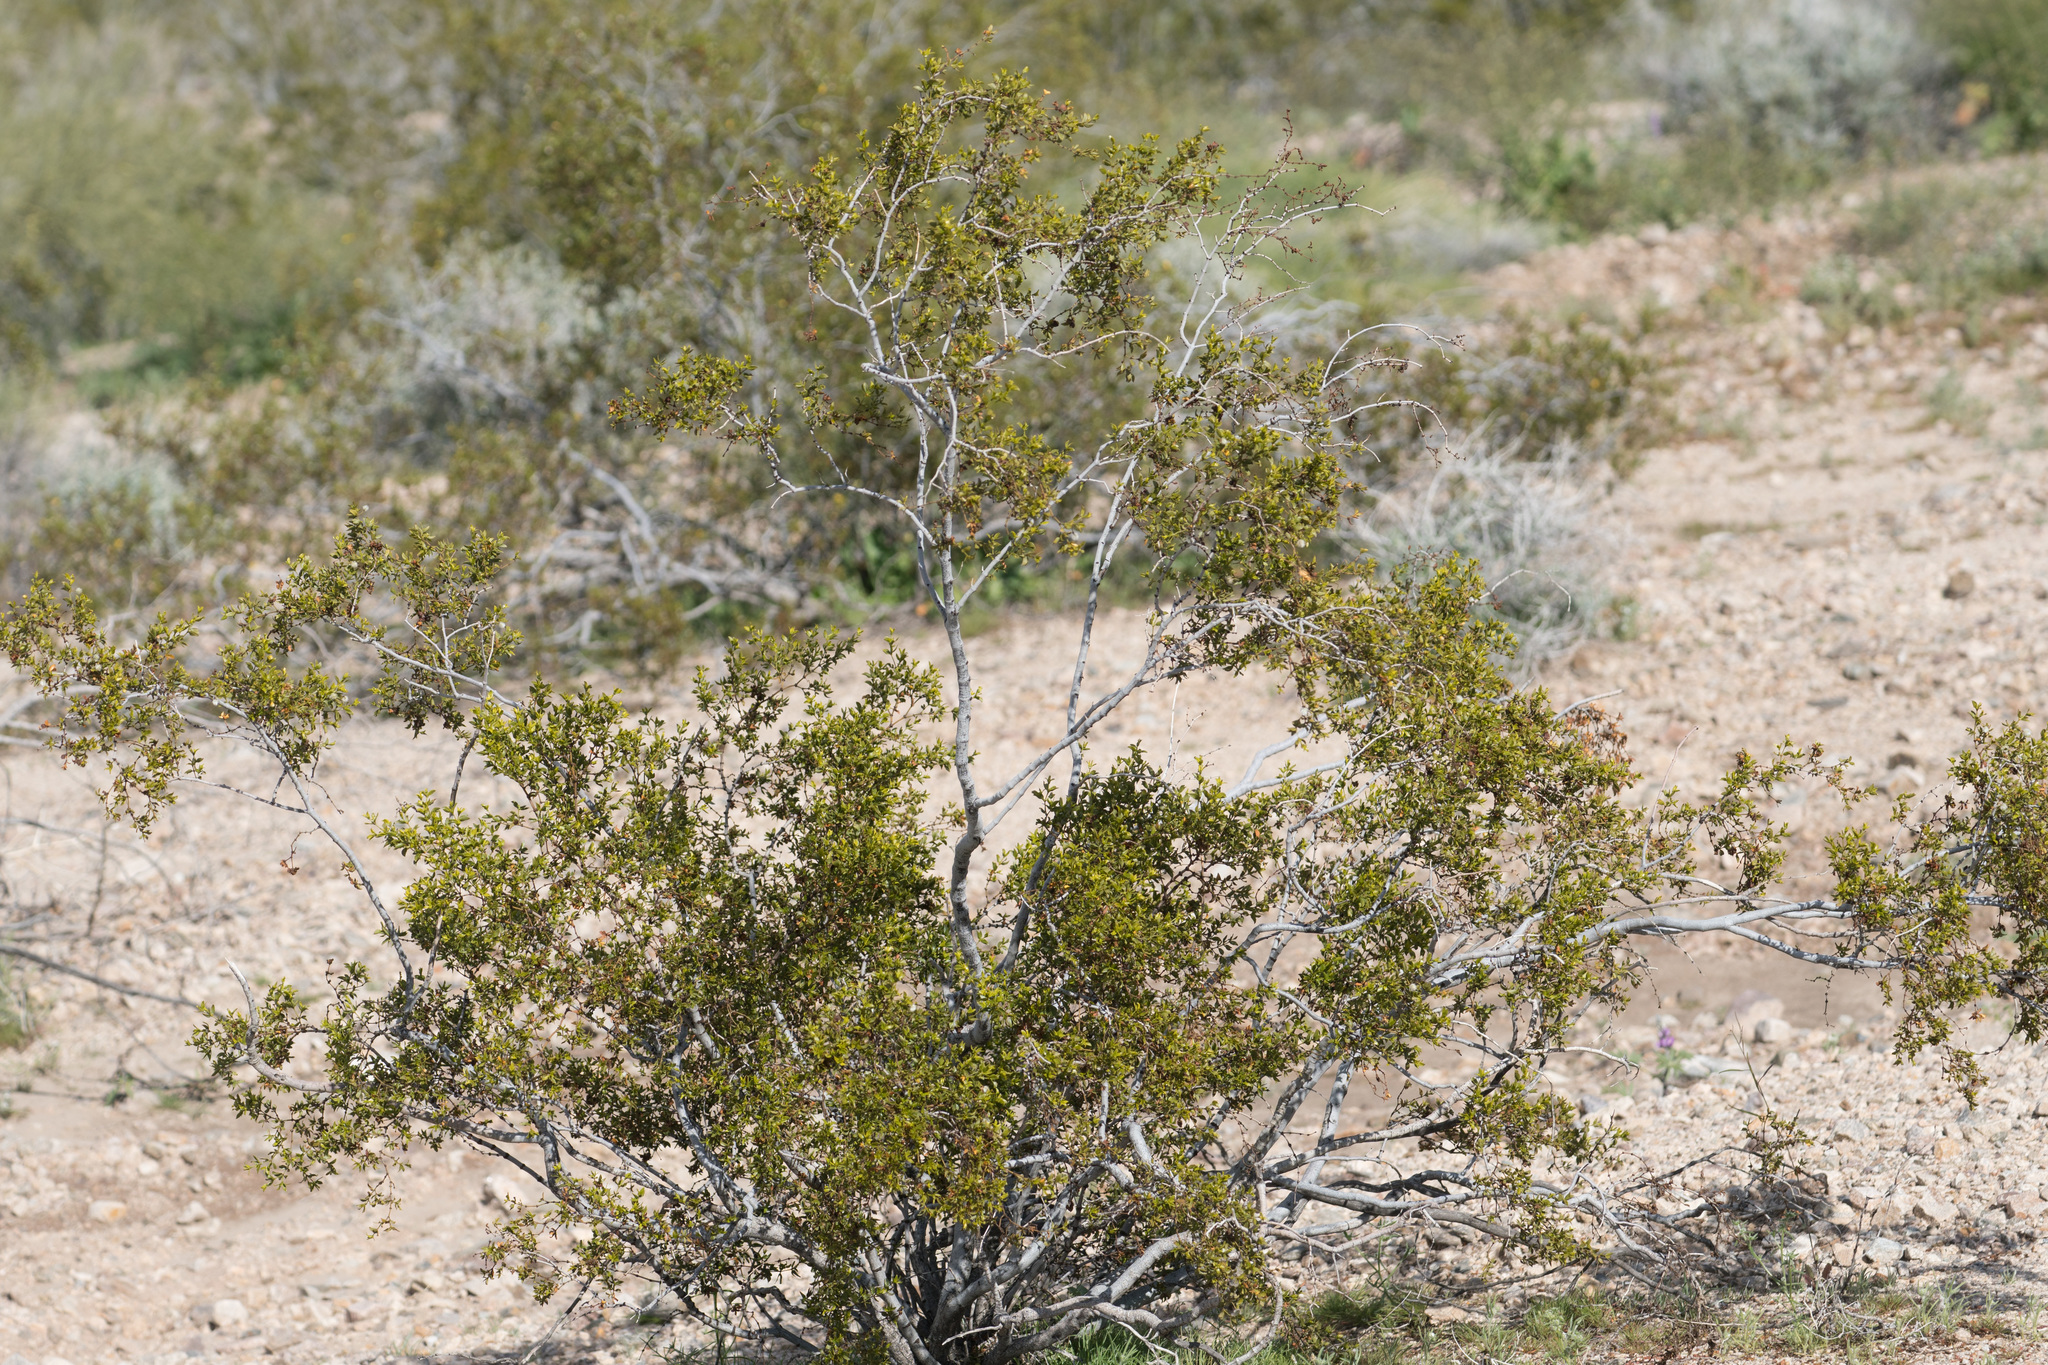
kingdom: Plantae
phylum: Tracheophyta
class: Magnoliopsida
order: Zygophyllales
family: Zygophyllaceae
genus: Larrea
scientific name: Larrea tridentata
